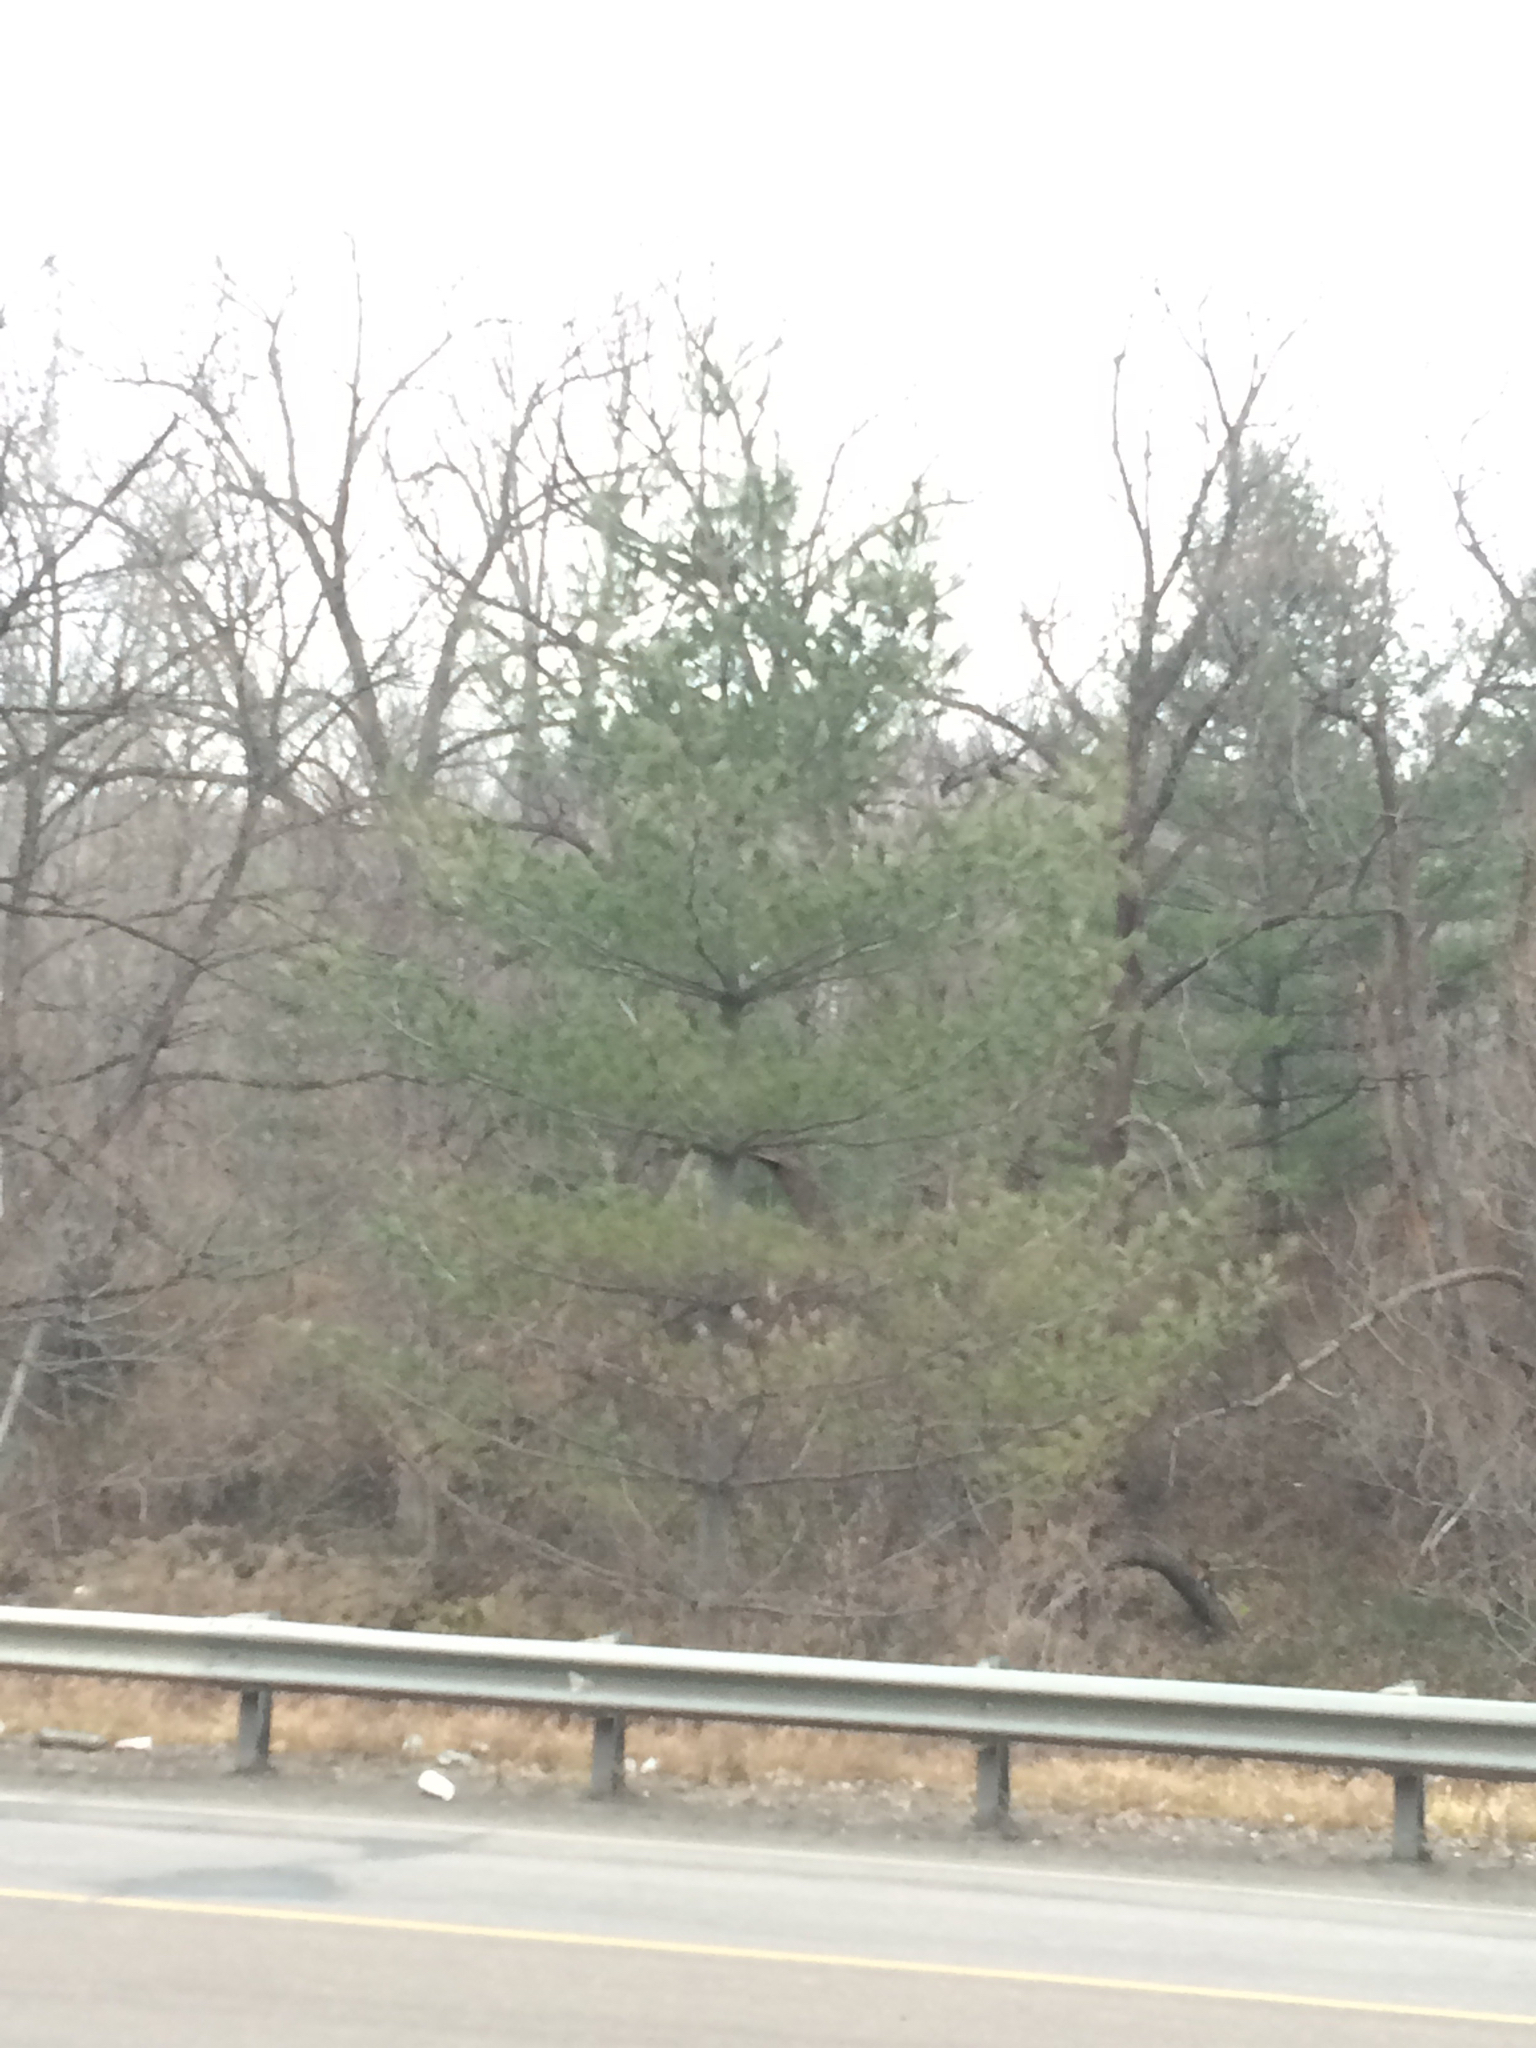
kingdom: Plantae
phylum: Tracheophyta
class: Pinopsida
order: Pinales
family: Pinaceae
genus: Pinus
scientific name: Pinus strobus
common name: Weymouth pine
